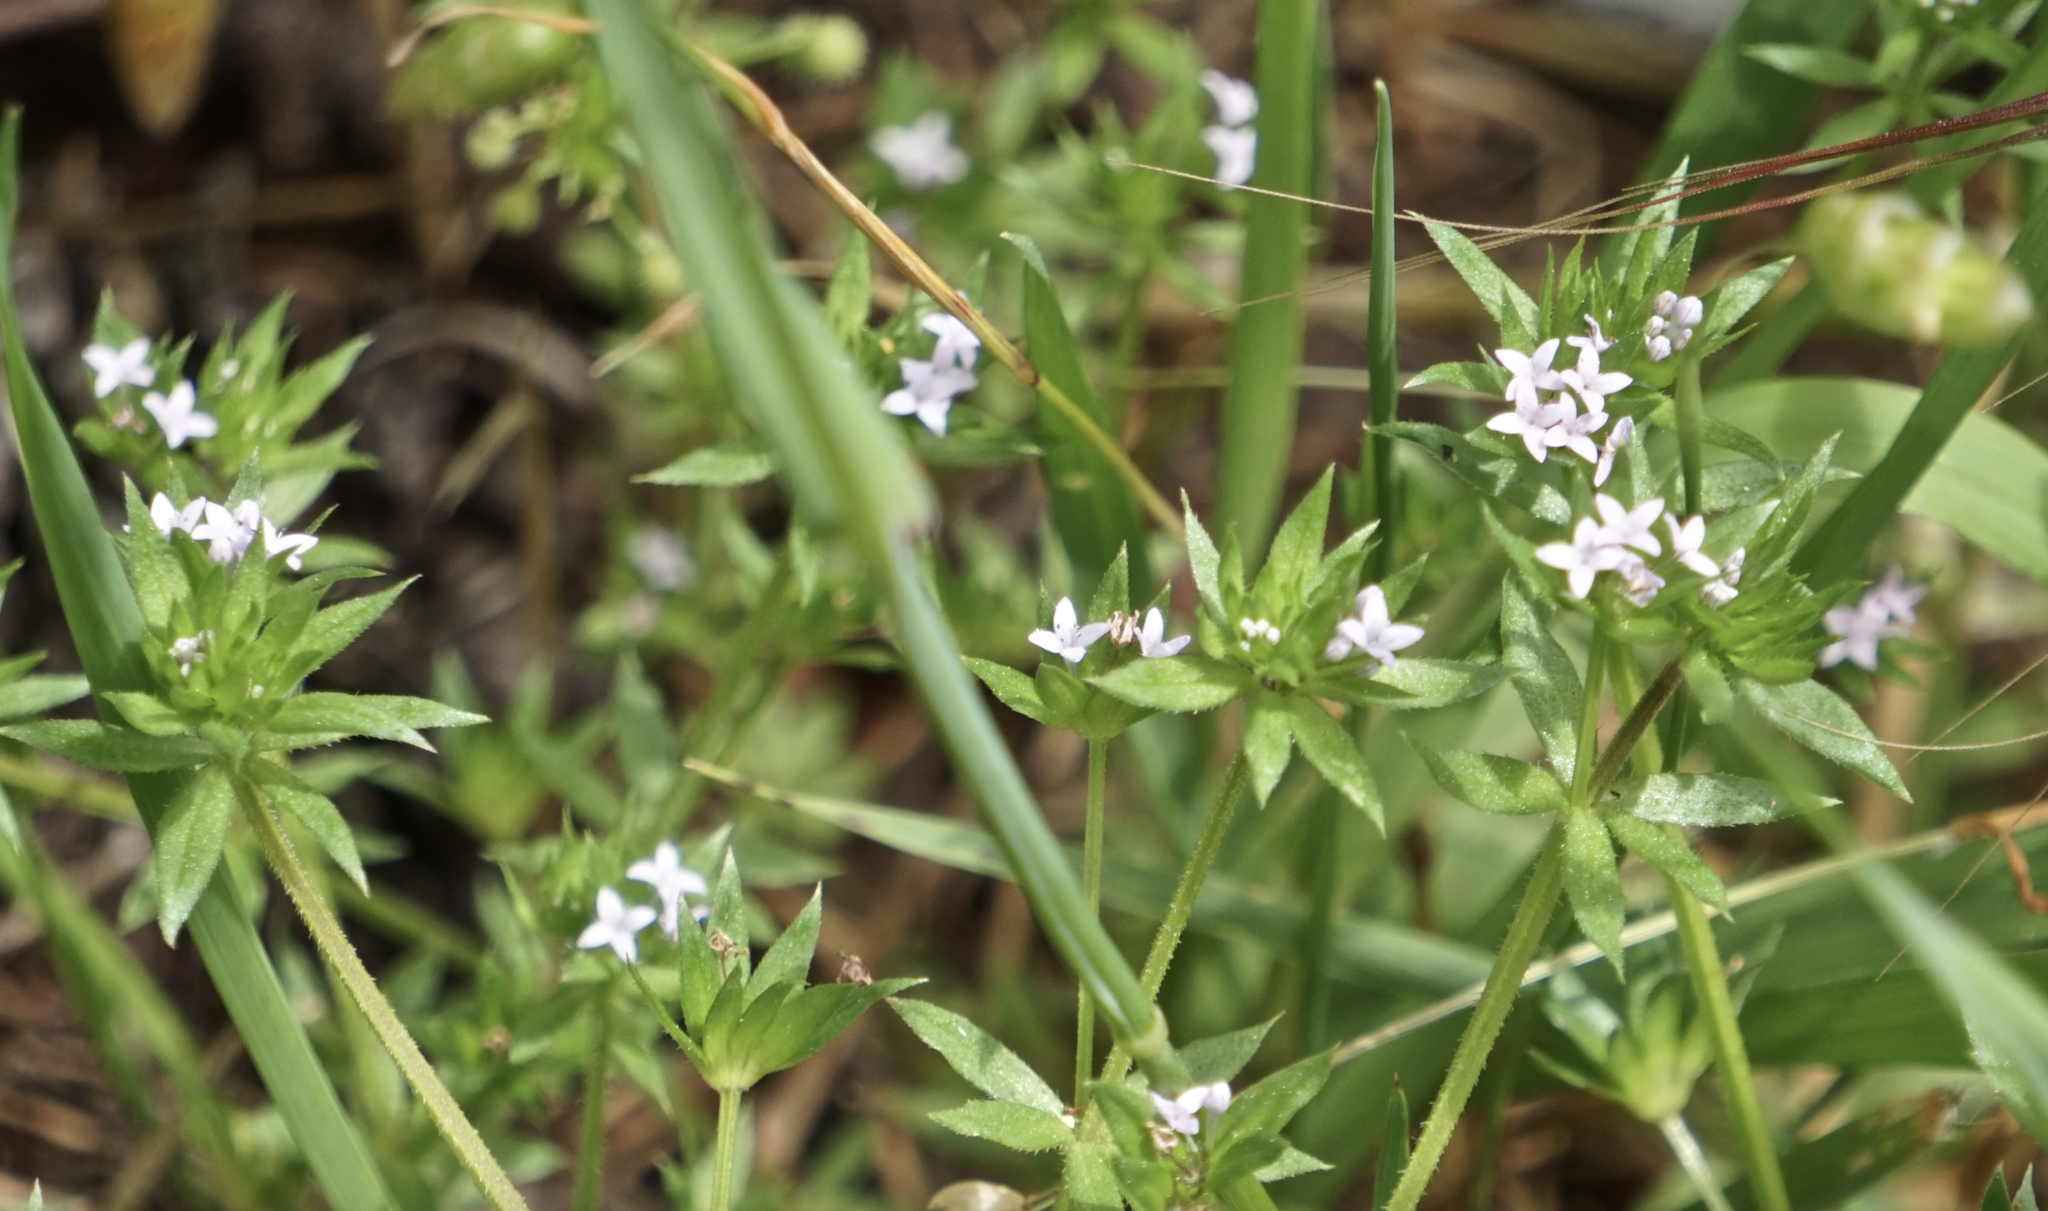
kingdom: Plantae
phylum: Tracheophyta
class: Magnoliopsida
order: Gentianales
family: Rubiaceae
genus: Sherardia
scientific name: Sherardia arvensis
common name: Field madder
